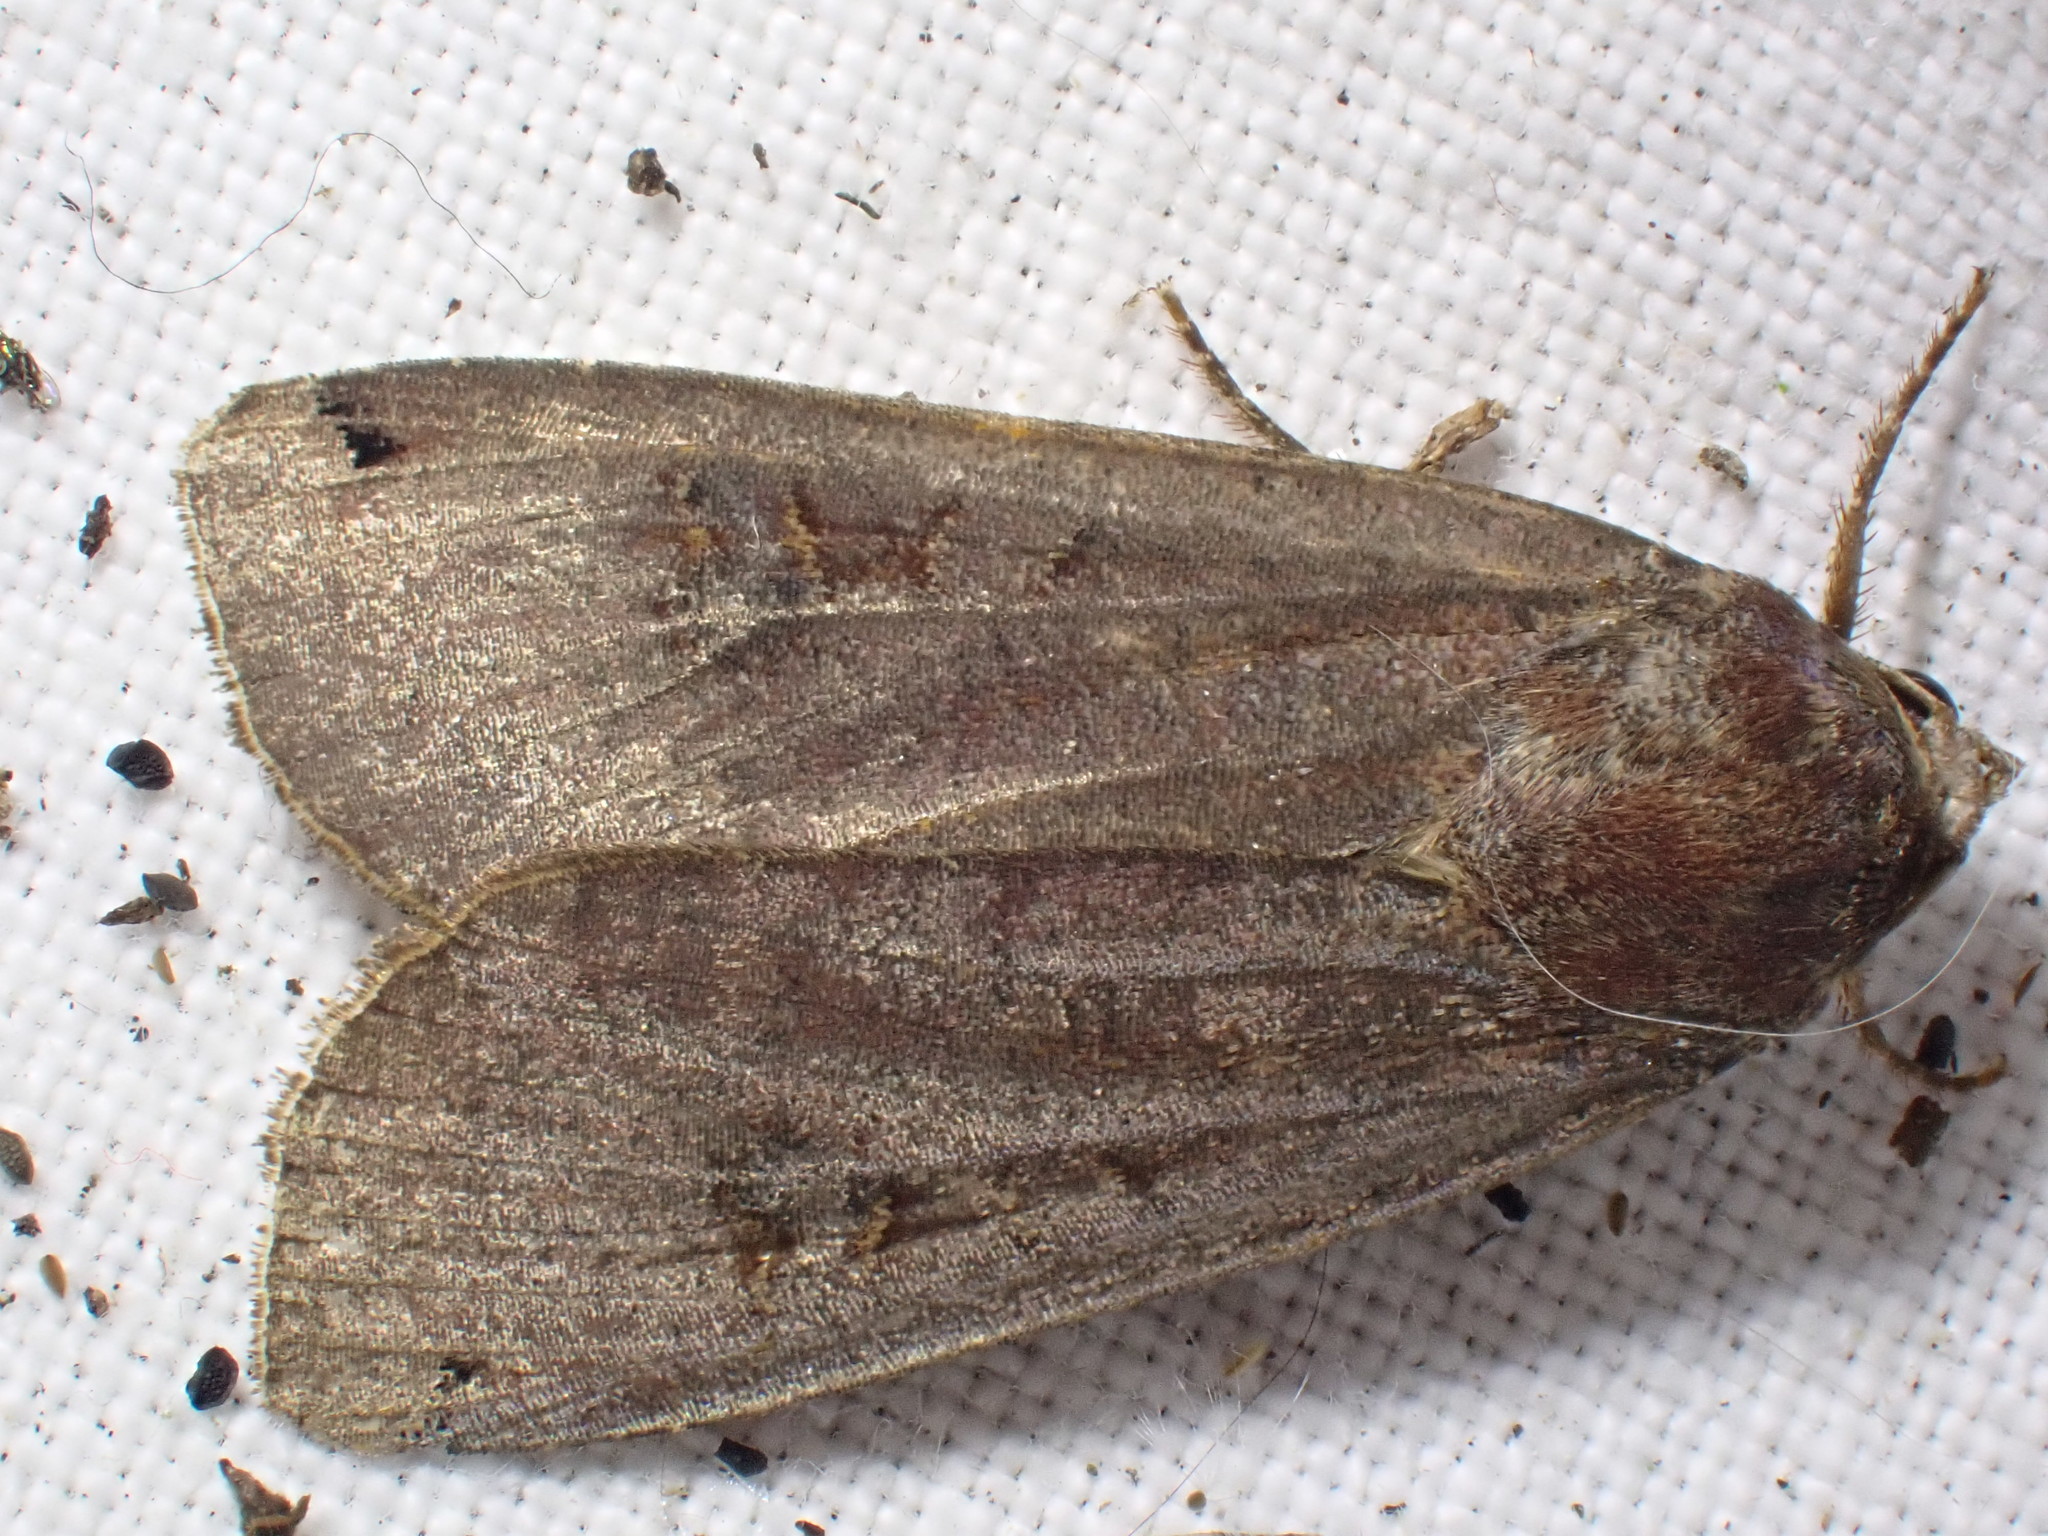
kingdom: Animalia
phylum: Arthropoda
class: Insecta
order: Lepidoptera
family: Noctuidae
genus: Noctua
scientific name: Noctua pronuba
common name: Large yellow underwing
